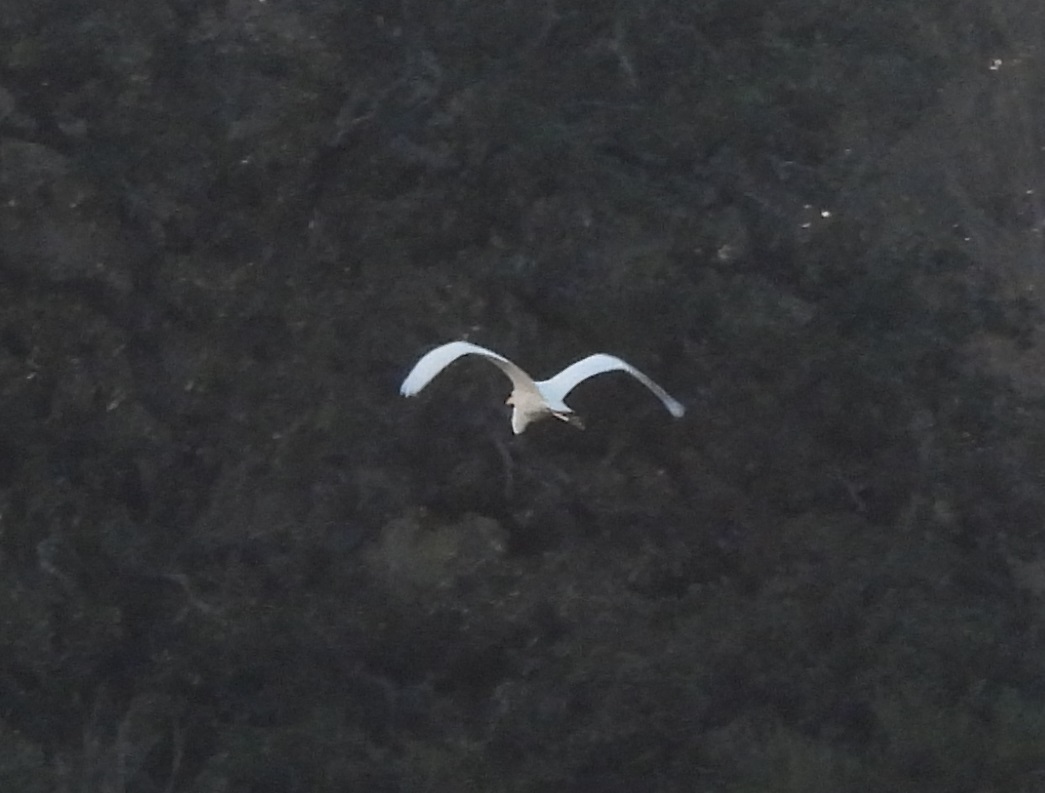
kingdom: Animalia
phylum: Chordata
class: Aves
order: Pelecaniformes
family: Ardeidae
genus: Ardea
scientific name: Ardea alba
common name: Great egret
